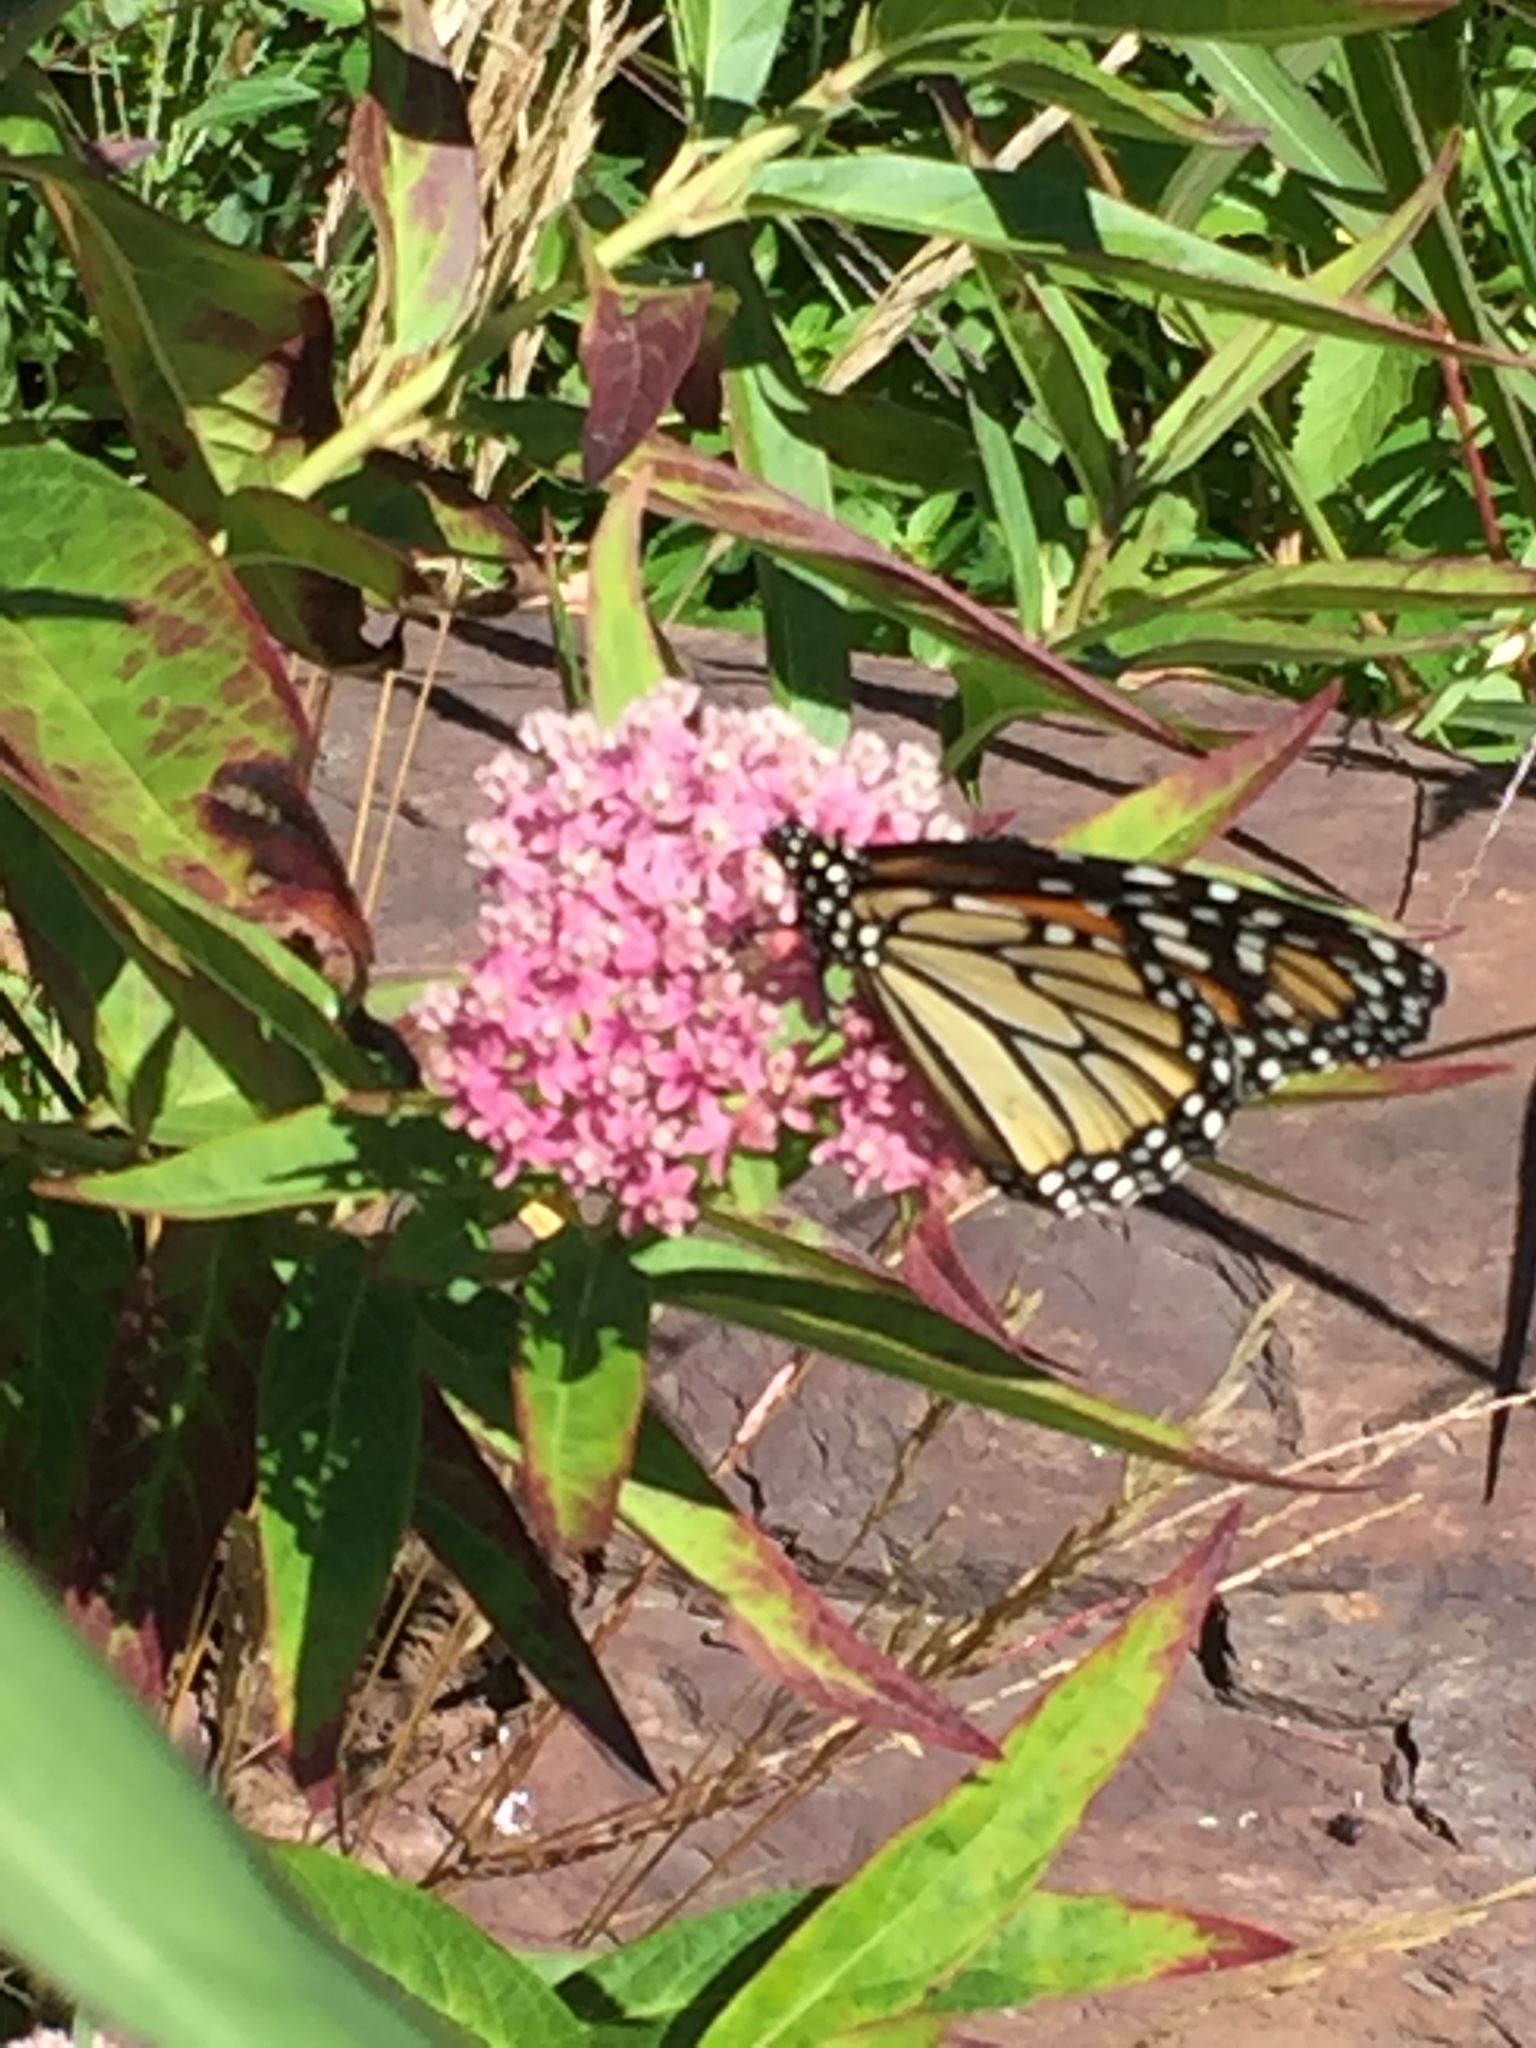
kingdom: Animalia
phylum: Arthropoda
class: Insecta
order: Lepidoptera
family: Nymphalidae
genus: Danaus
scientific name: Danaus plexippus
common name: Monarch
